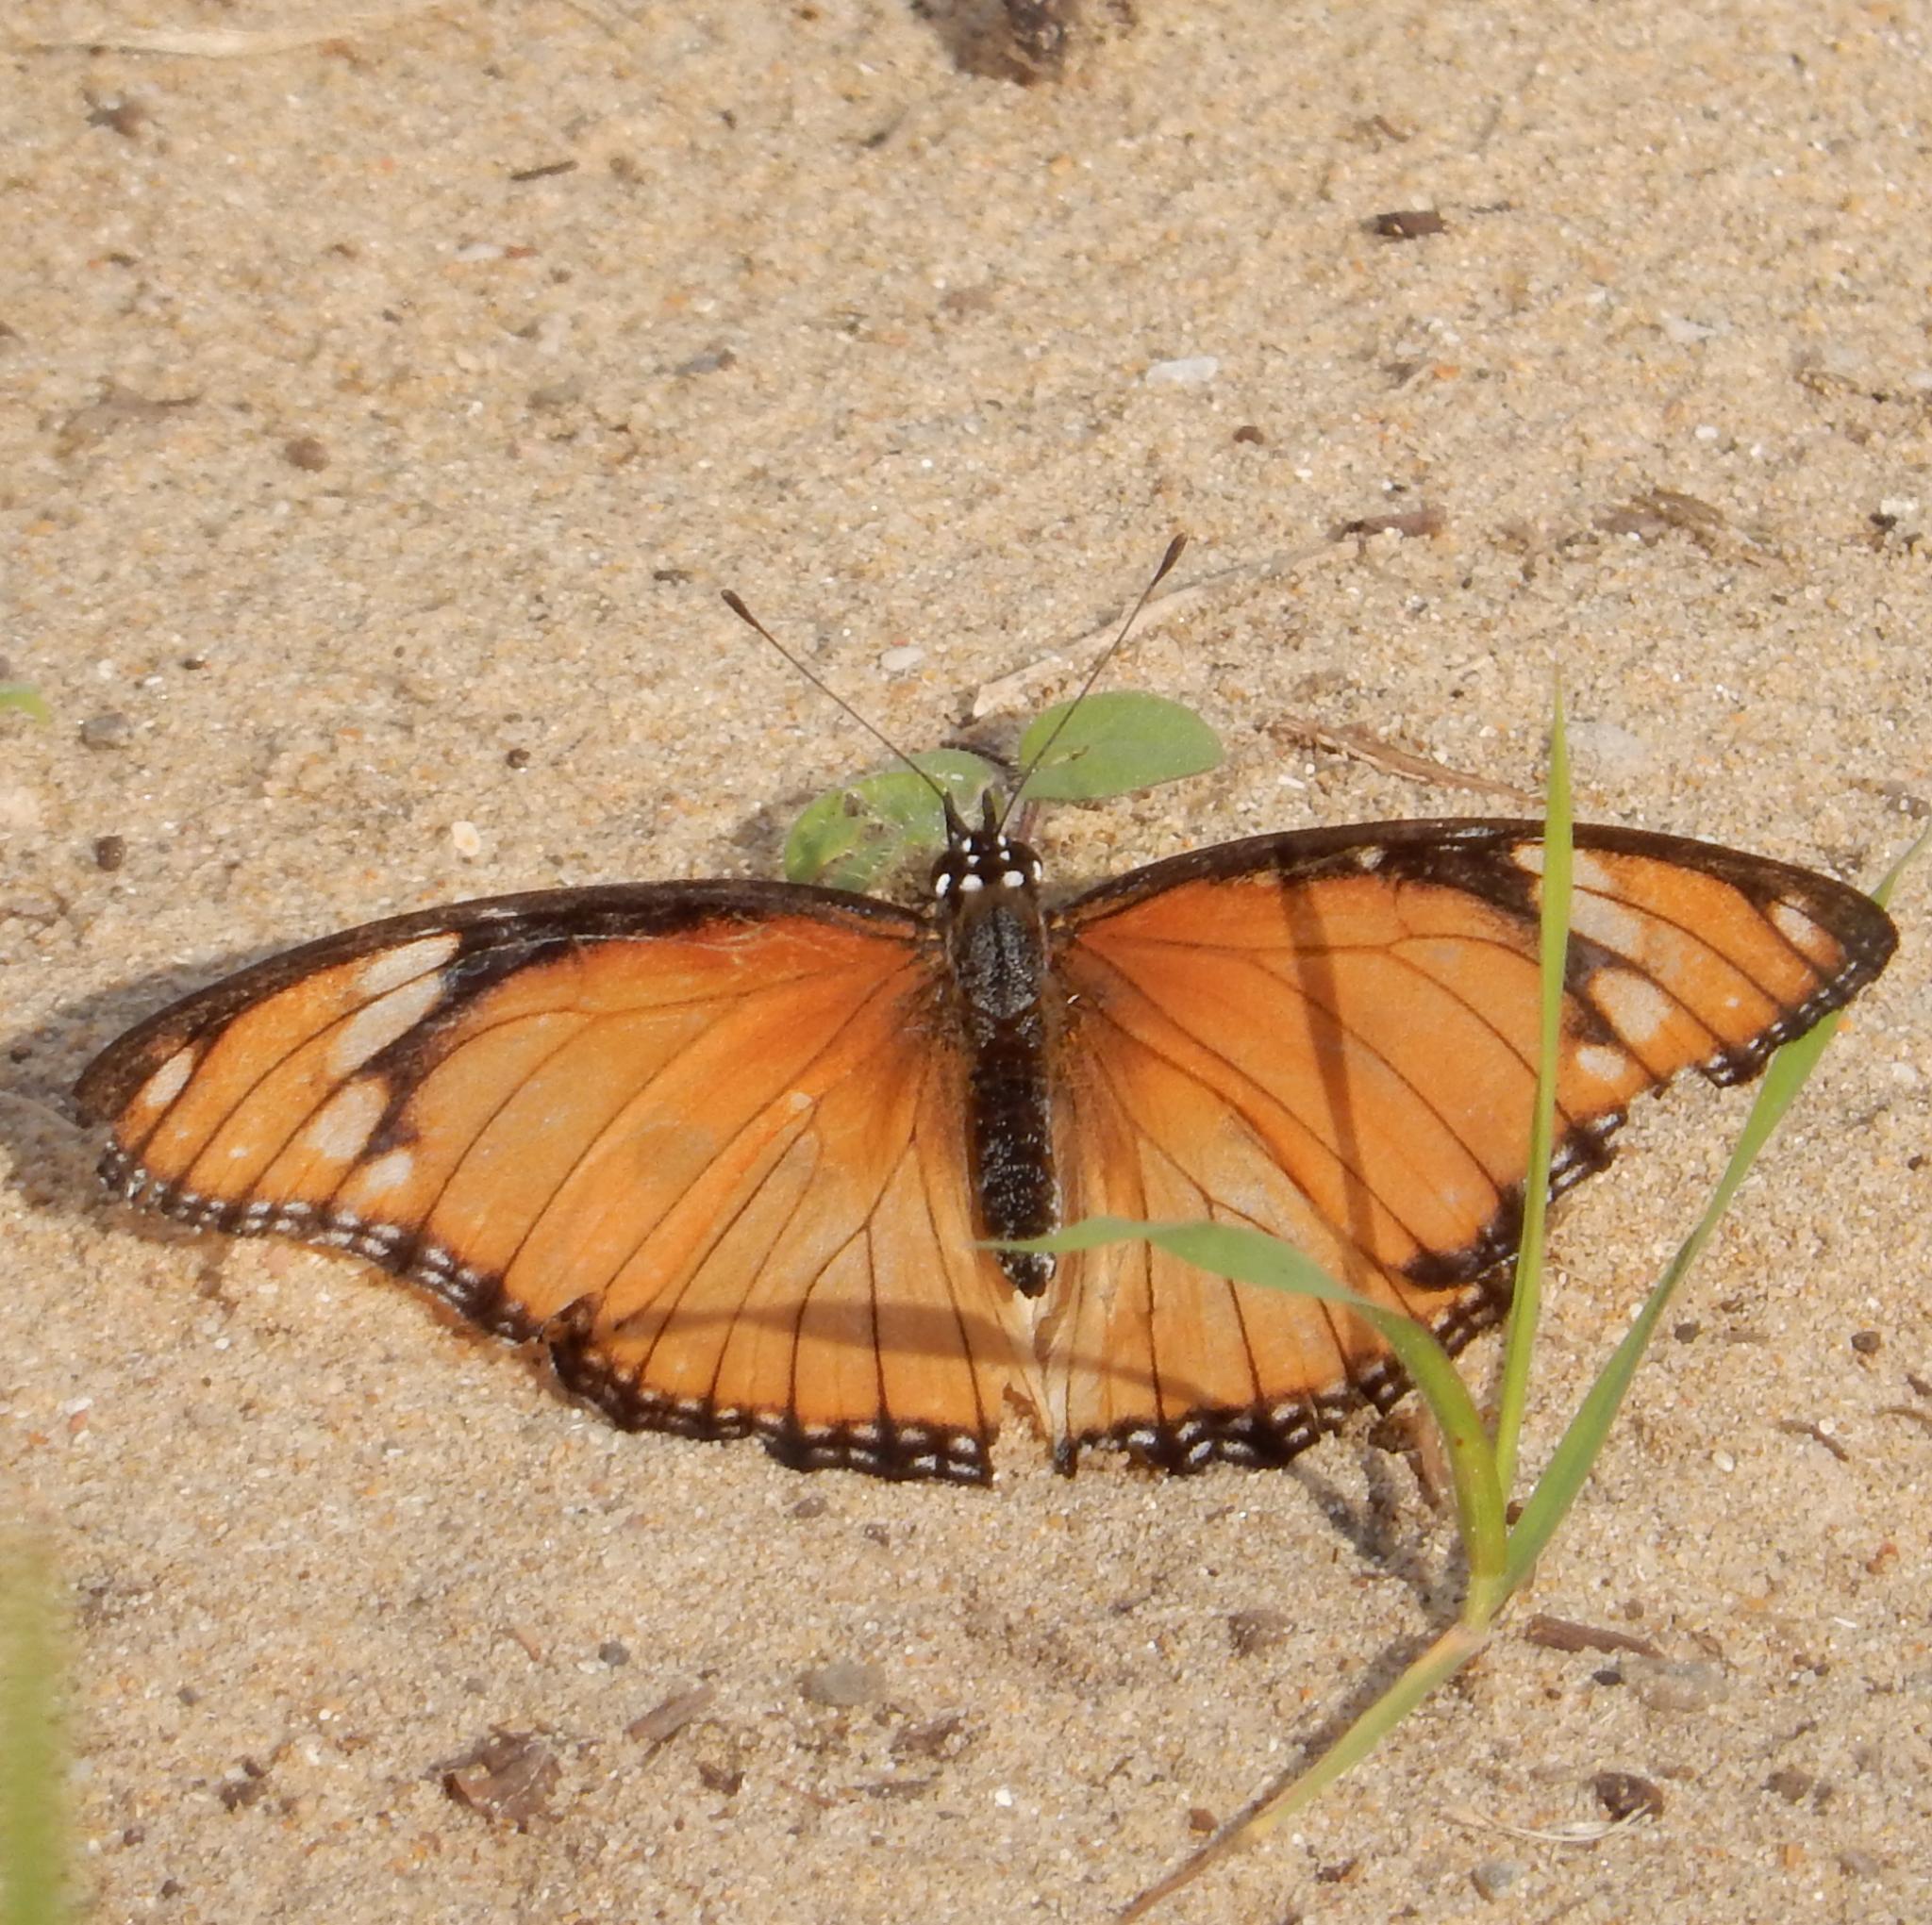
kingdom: Animalia
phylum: Arthropoda
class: Insecta
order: Lepidoptera
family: Nymphalidae
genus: Hypolimnas
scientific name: Hypolimnas misippus
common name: False plain tiger
